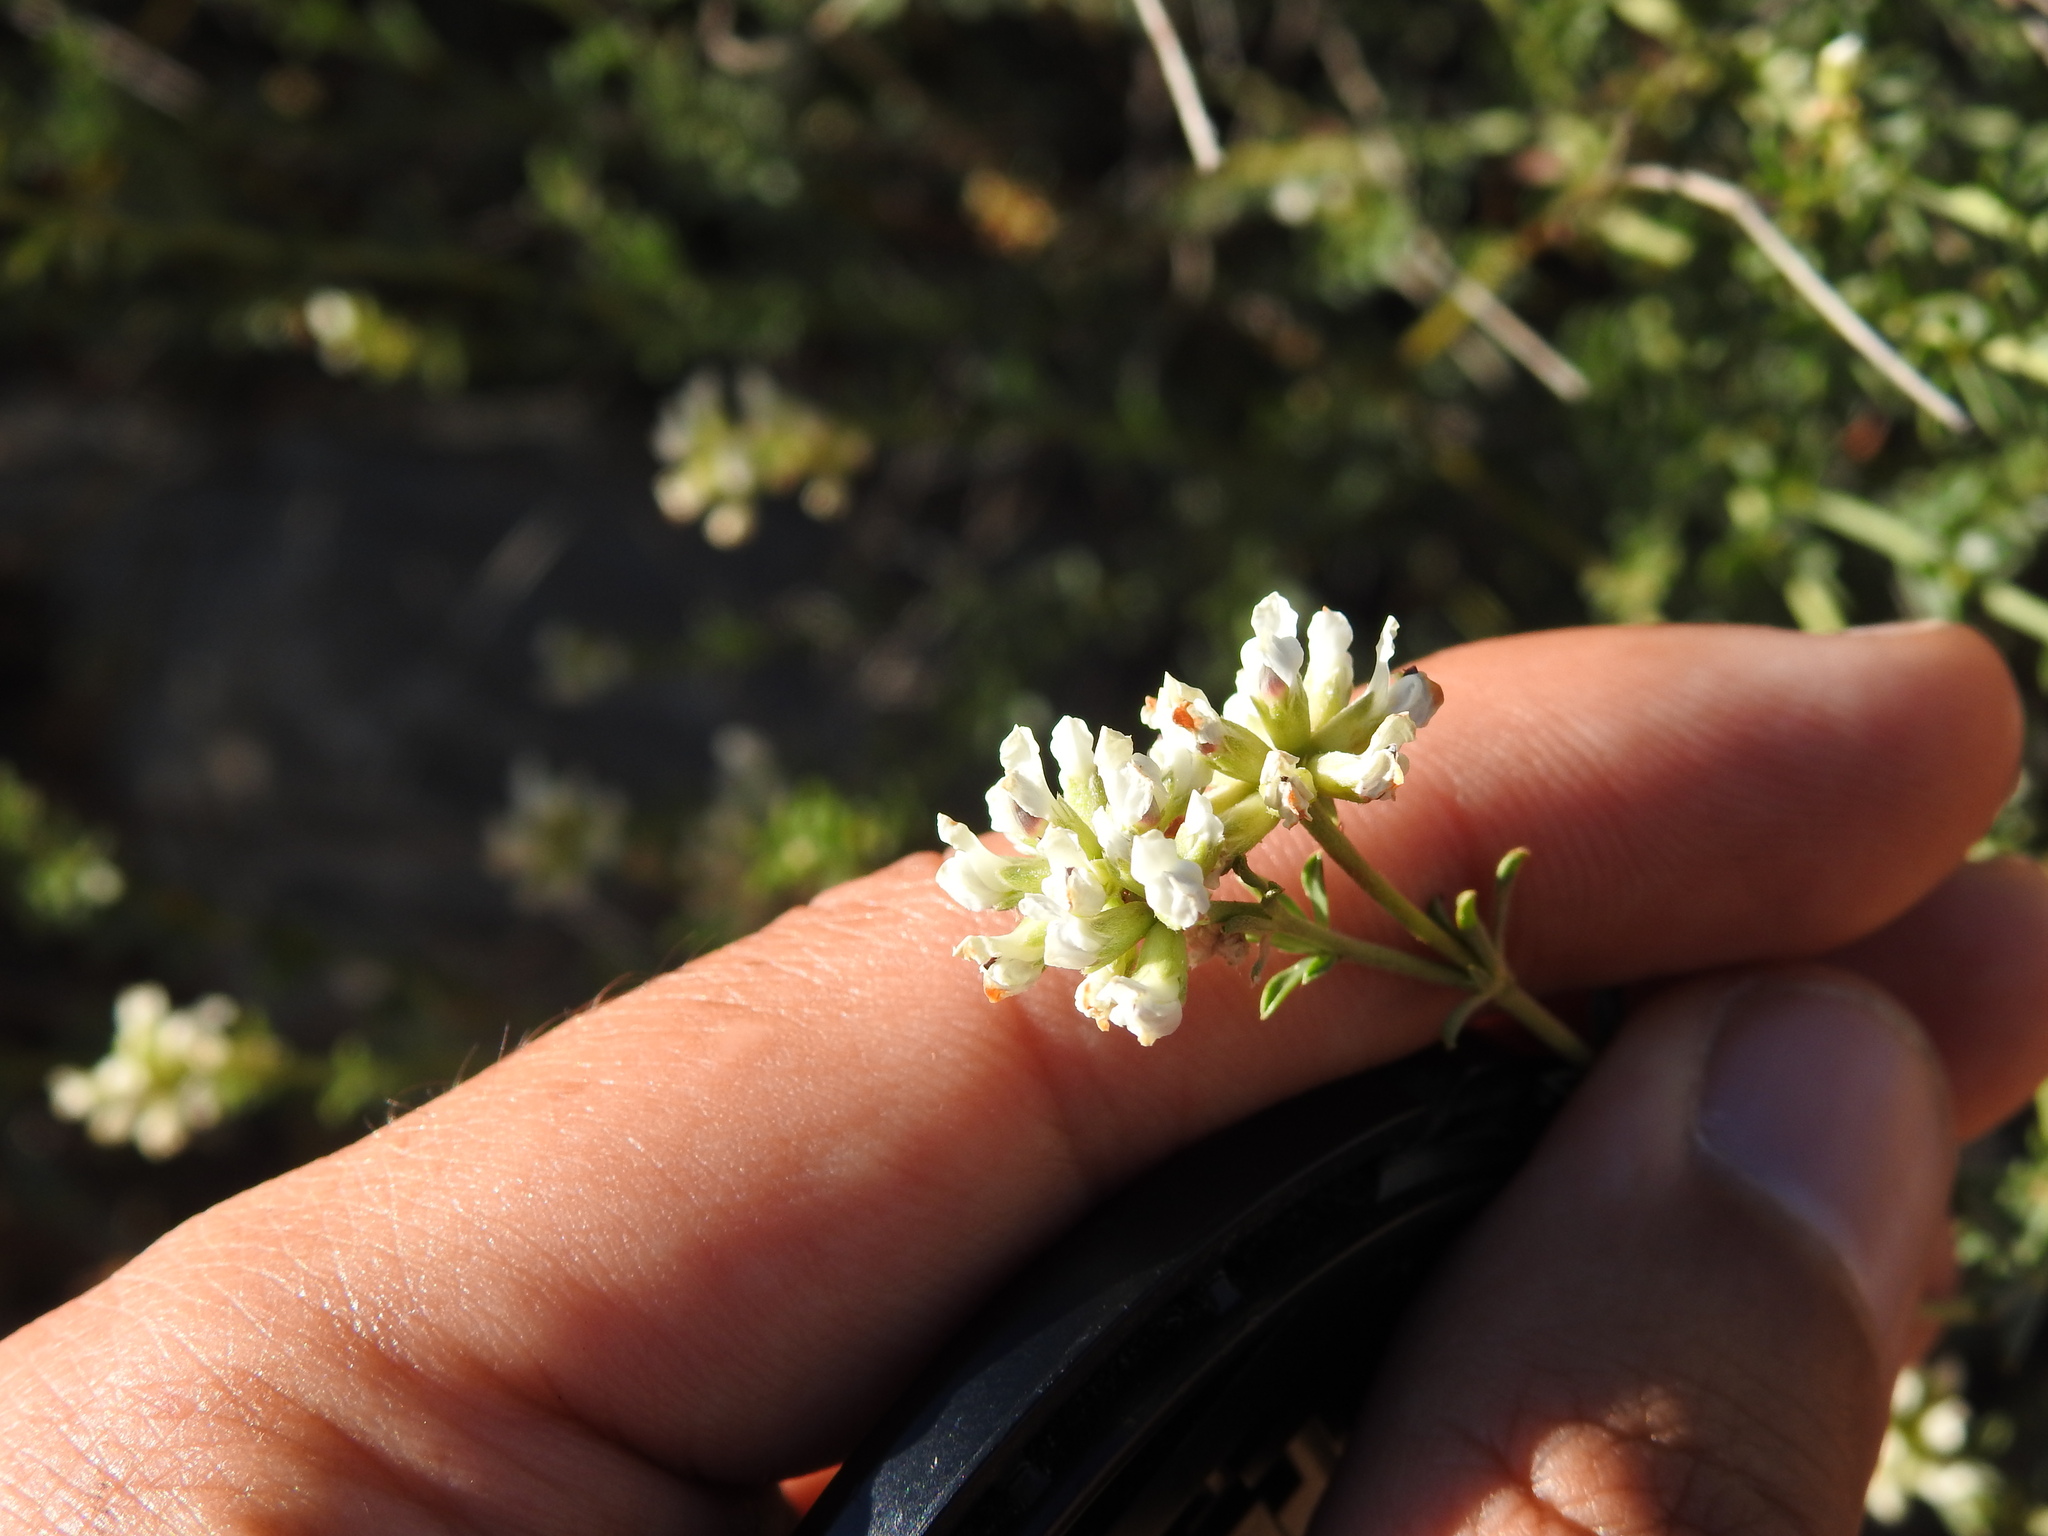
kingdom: Plantae
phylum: Tracheophyta
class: Magnoliopsida
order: Fabales
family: Fabaceae
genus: Lotus
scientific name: Lotus dorycnium
